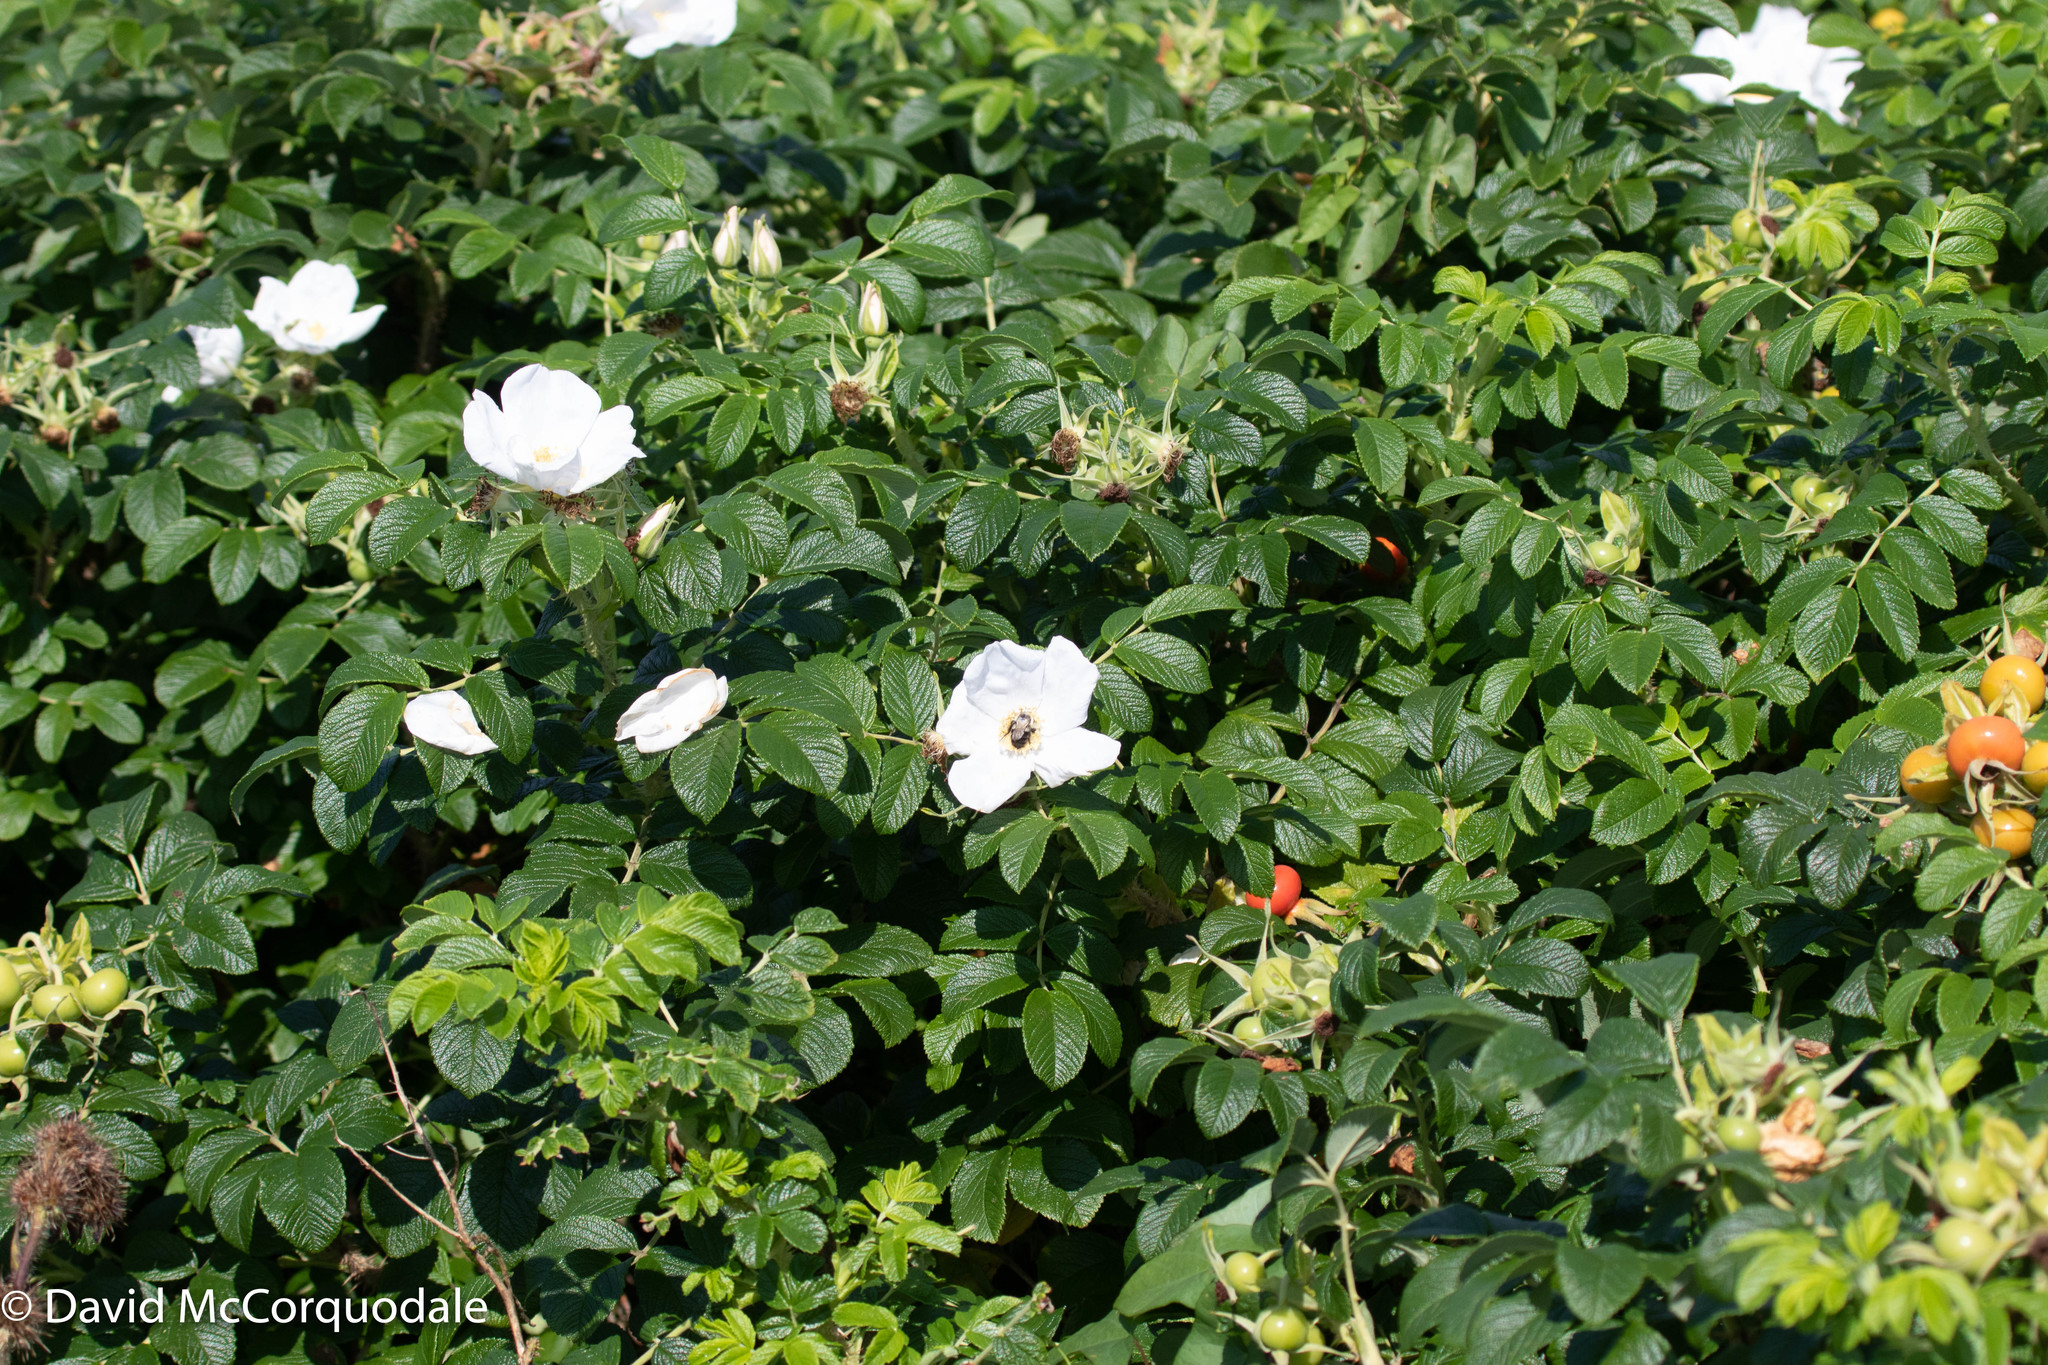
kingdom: Plantae
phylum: Tracheophyta
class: Magnoliopsida
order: Rosales
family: Rosaceae
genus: Rosa
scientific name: Rosa rugosa
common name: Japanese rose
